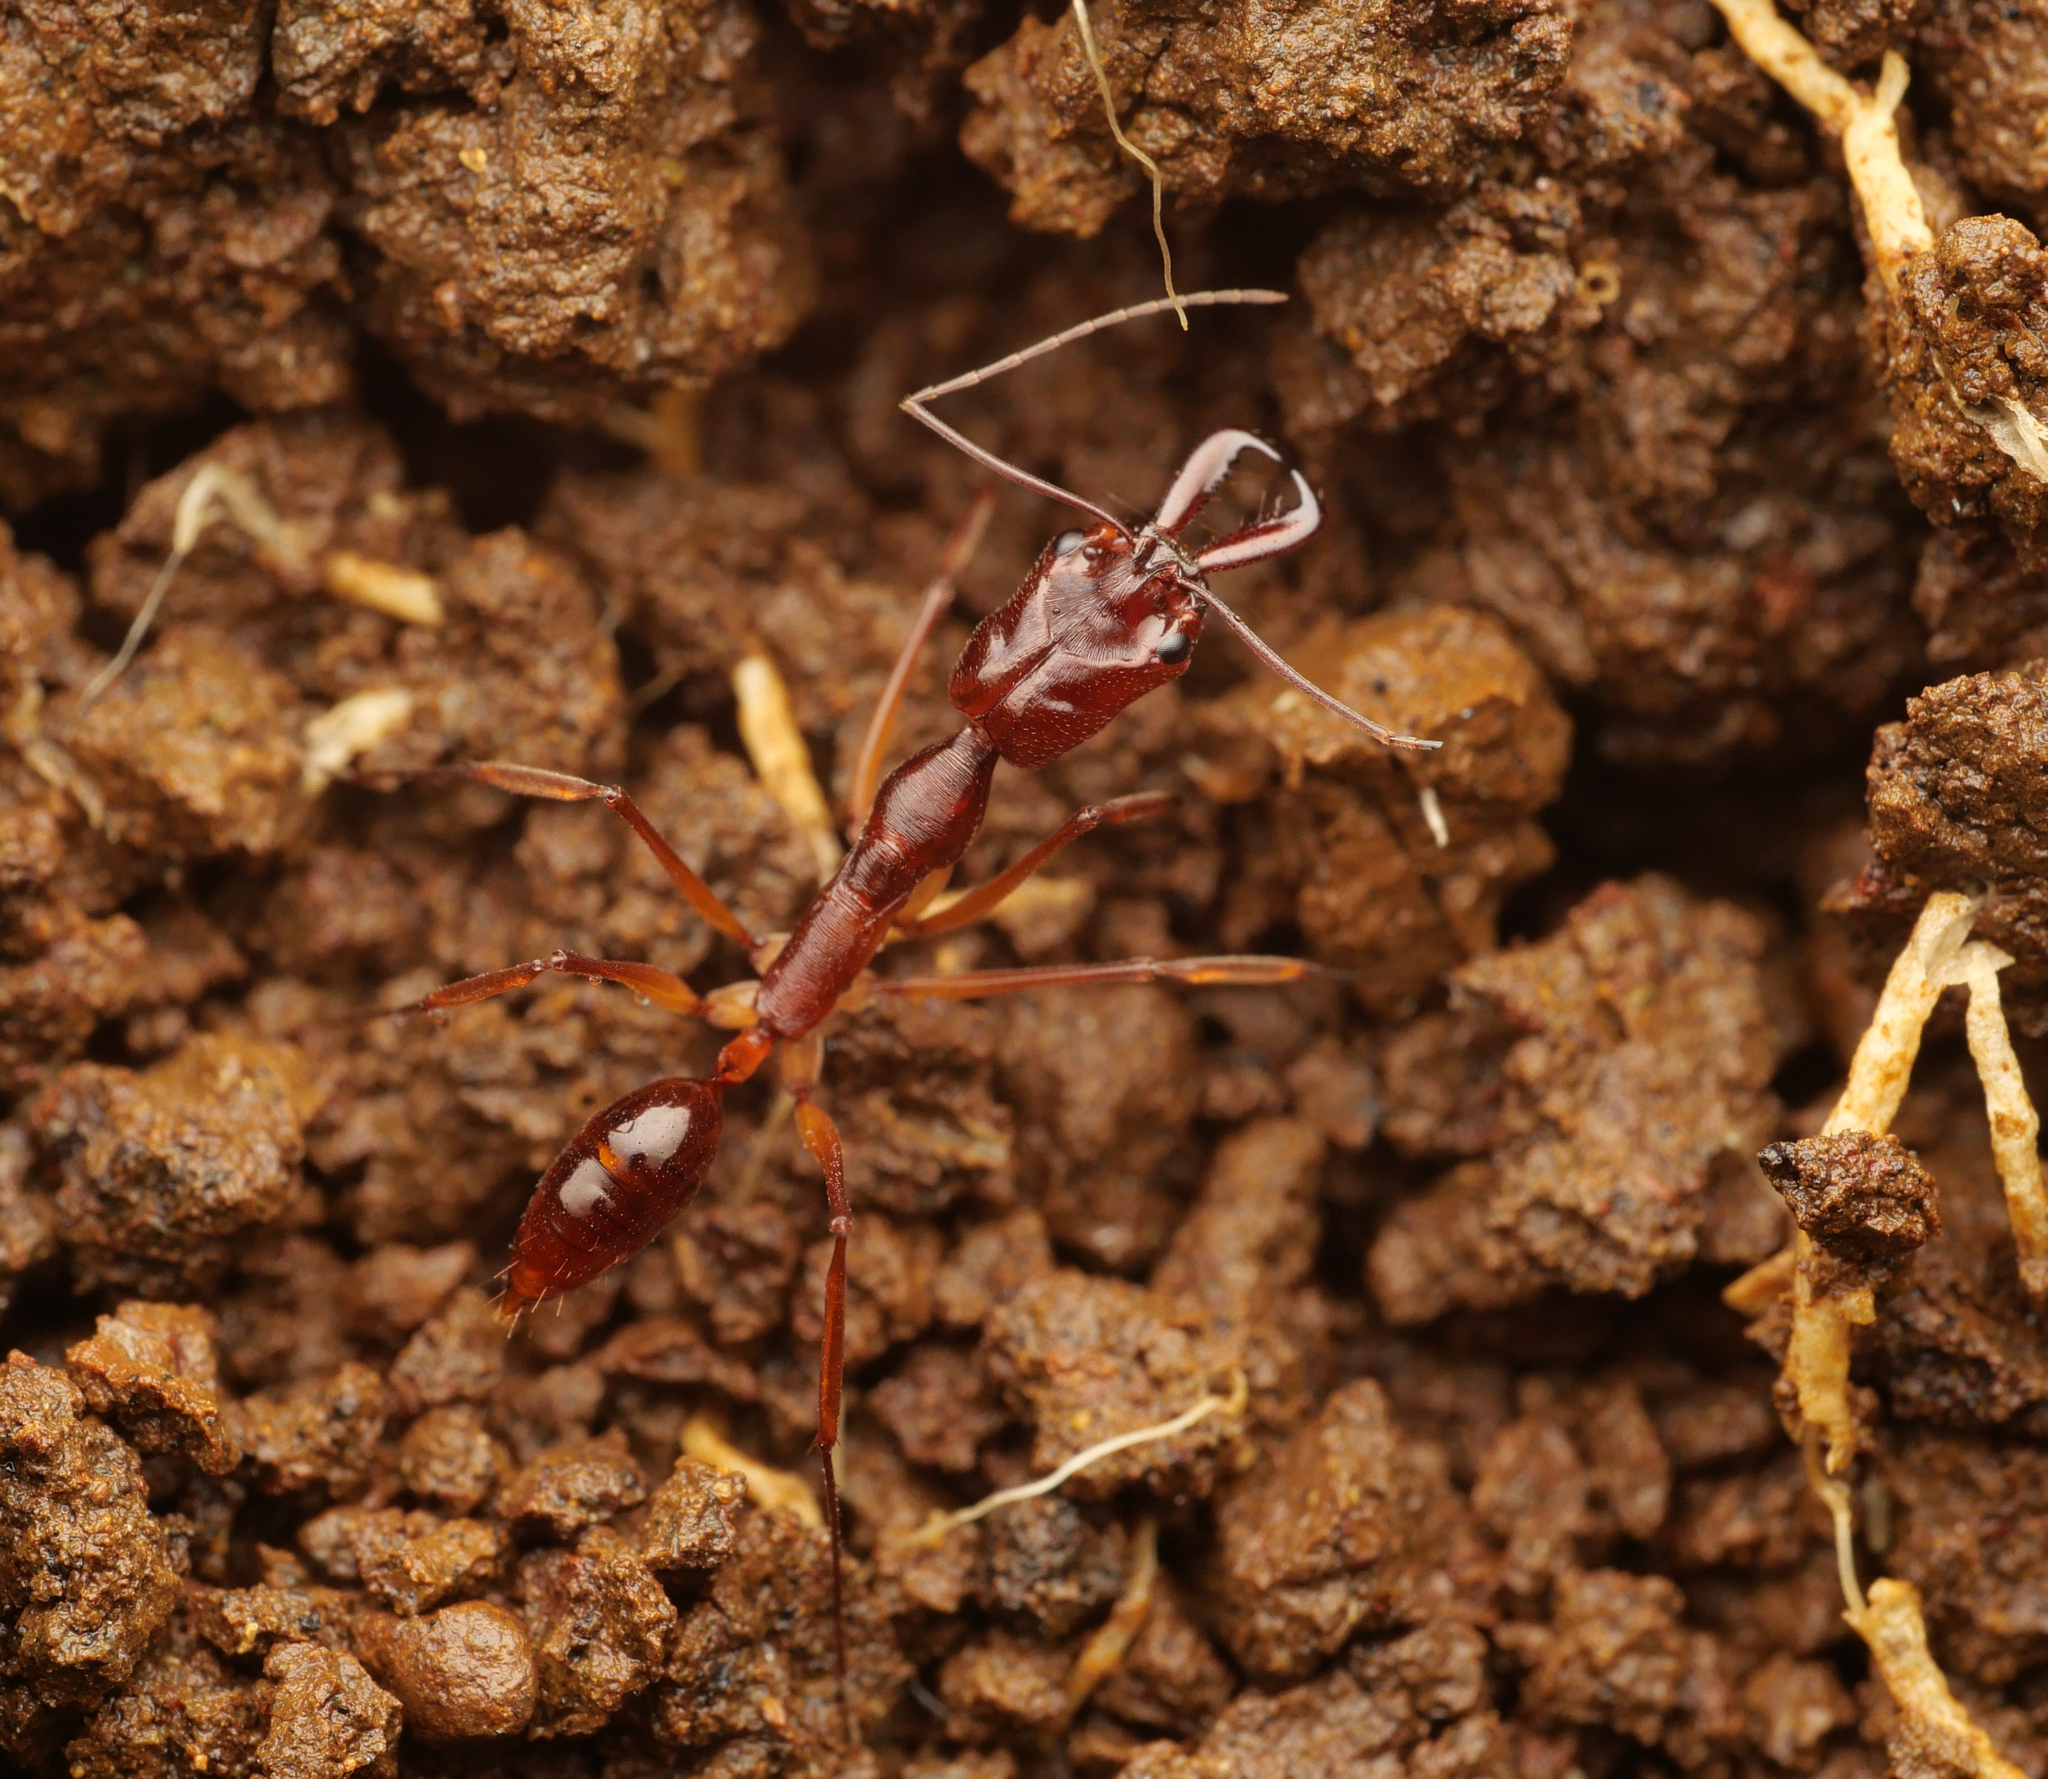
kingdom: Animalia
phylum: Arthropoda
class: Insecta
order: Hymenoptera
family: Formicidae
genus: Odontomachus
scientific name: Odontomachus papuanus
